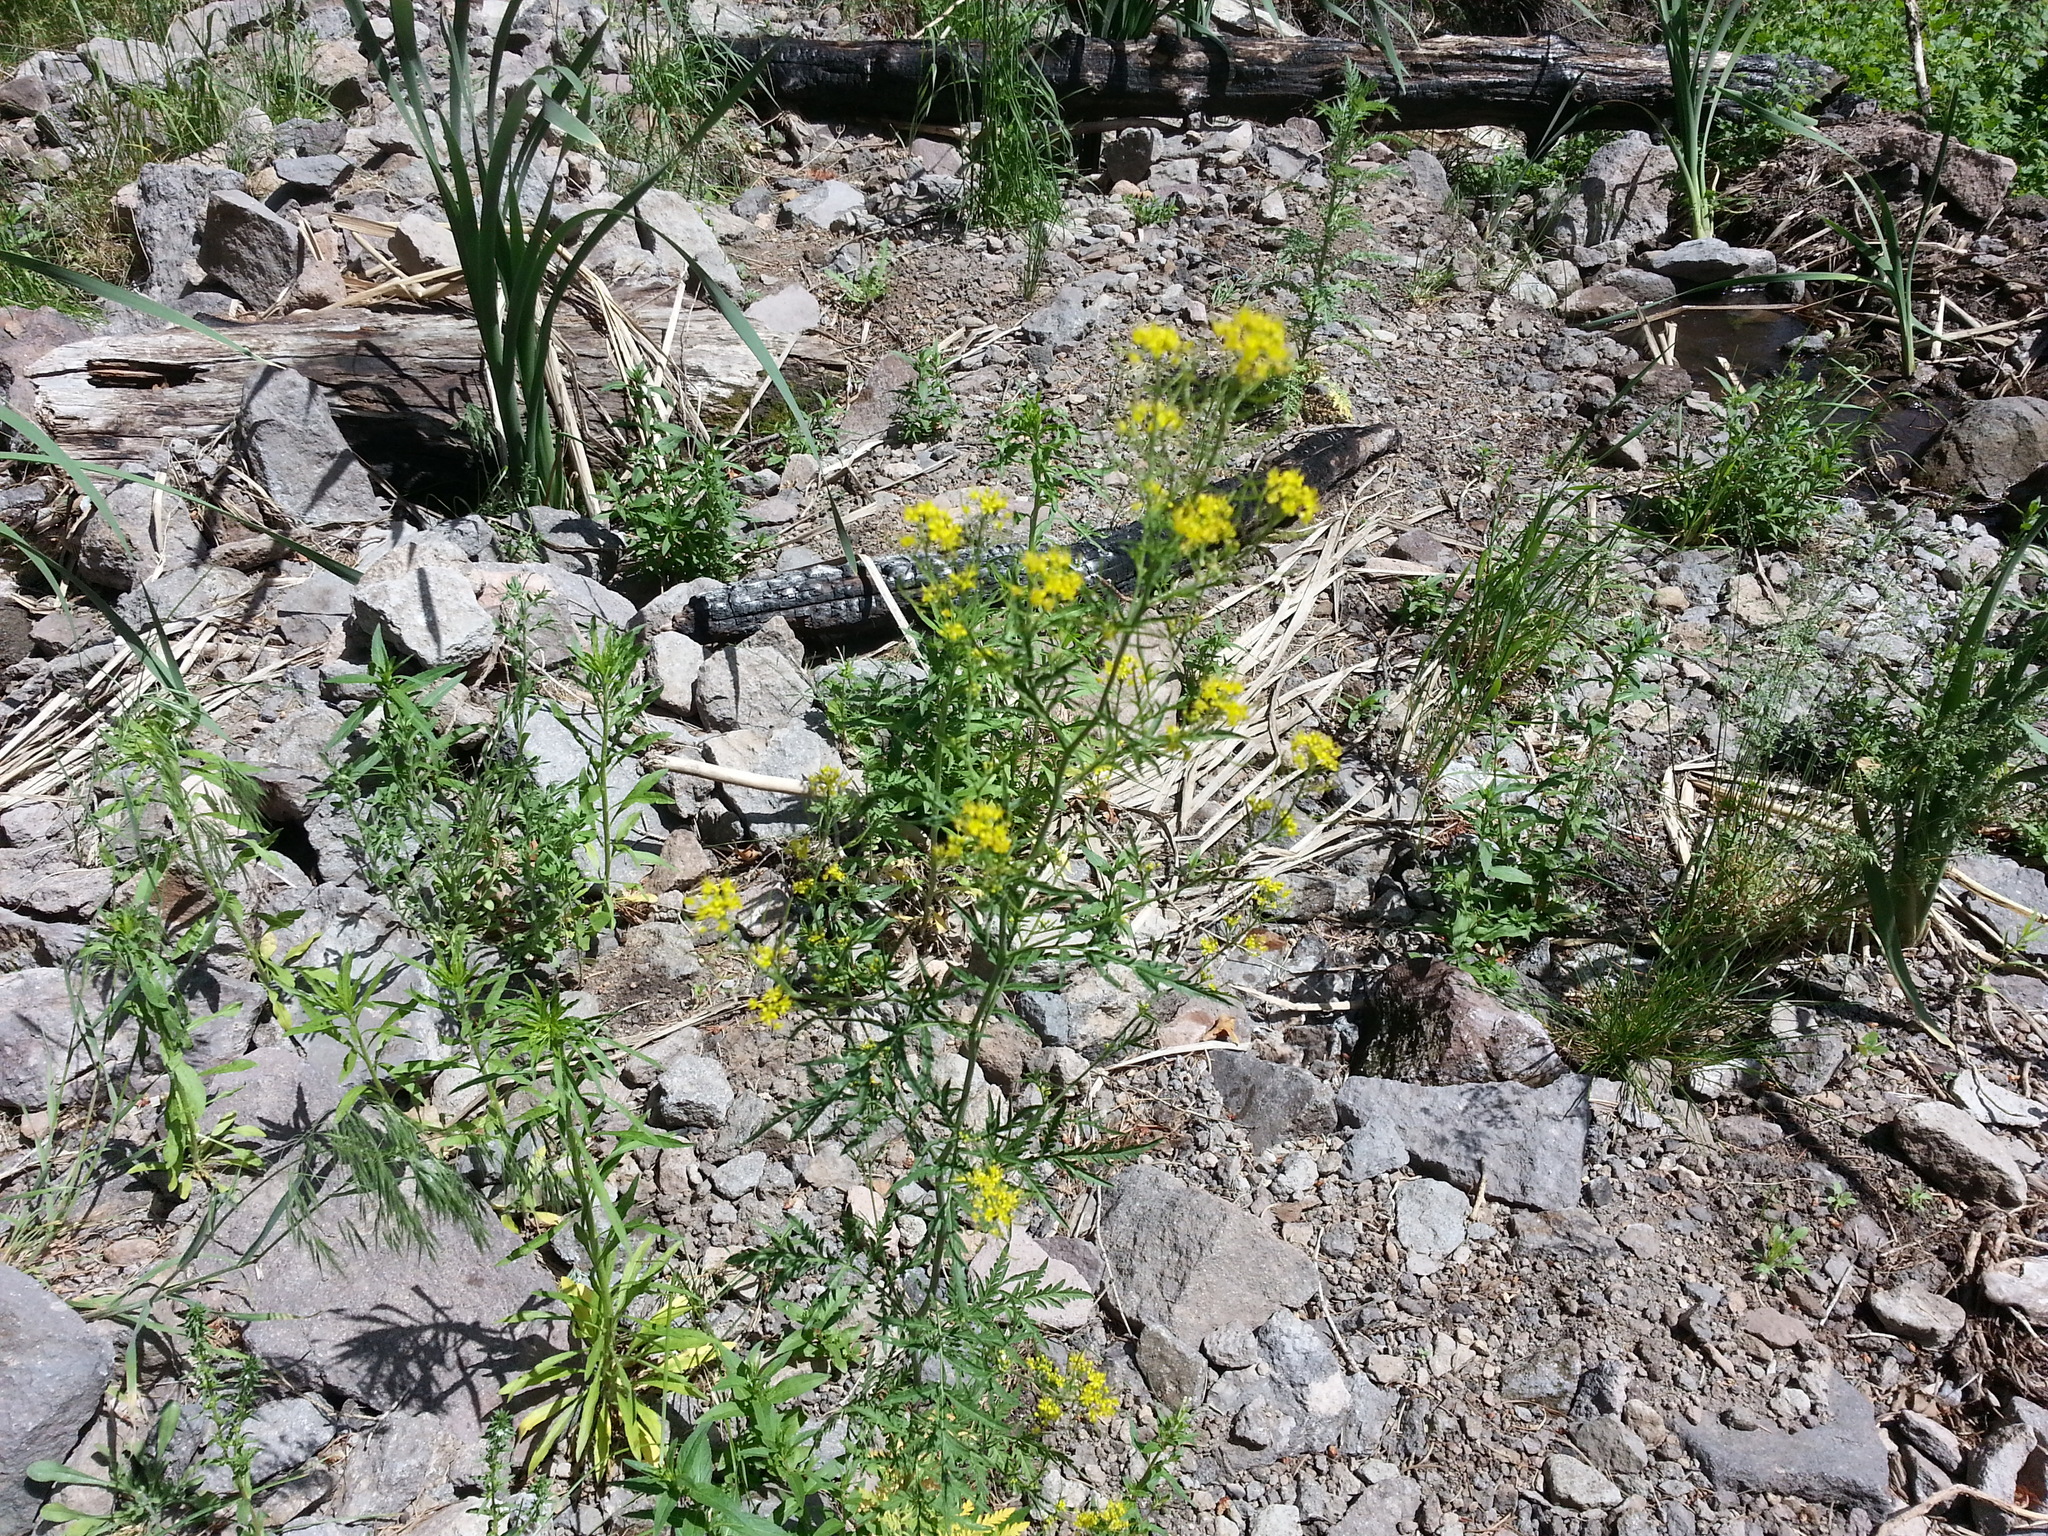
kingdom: Plantae
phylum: Tracheophyta
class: Magnoliopsida
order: Brassicales
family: Brassicaceae
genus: Descurainia
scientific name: Descurainia incana
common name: Gray tansy mustard
